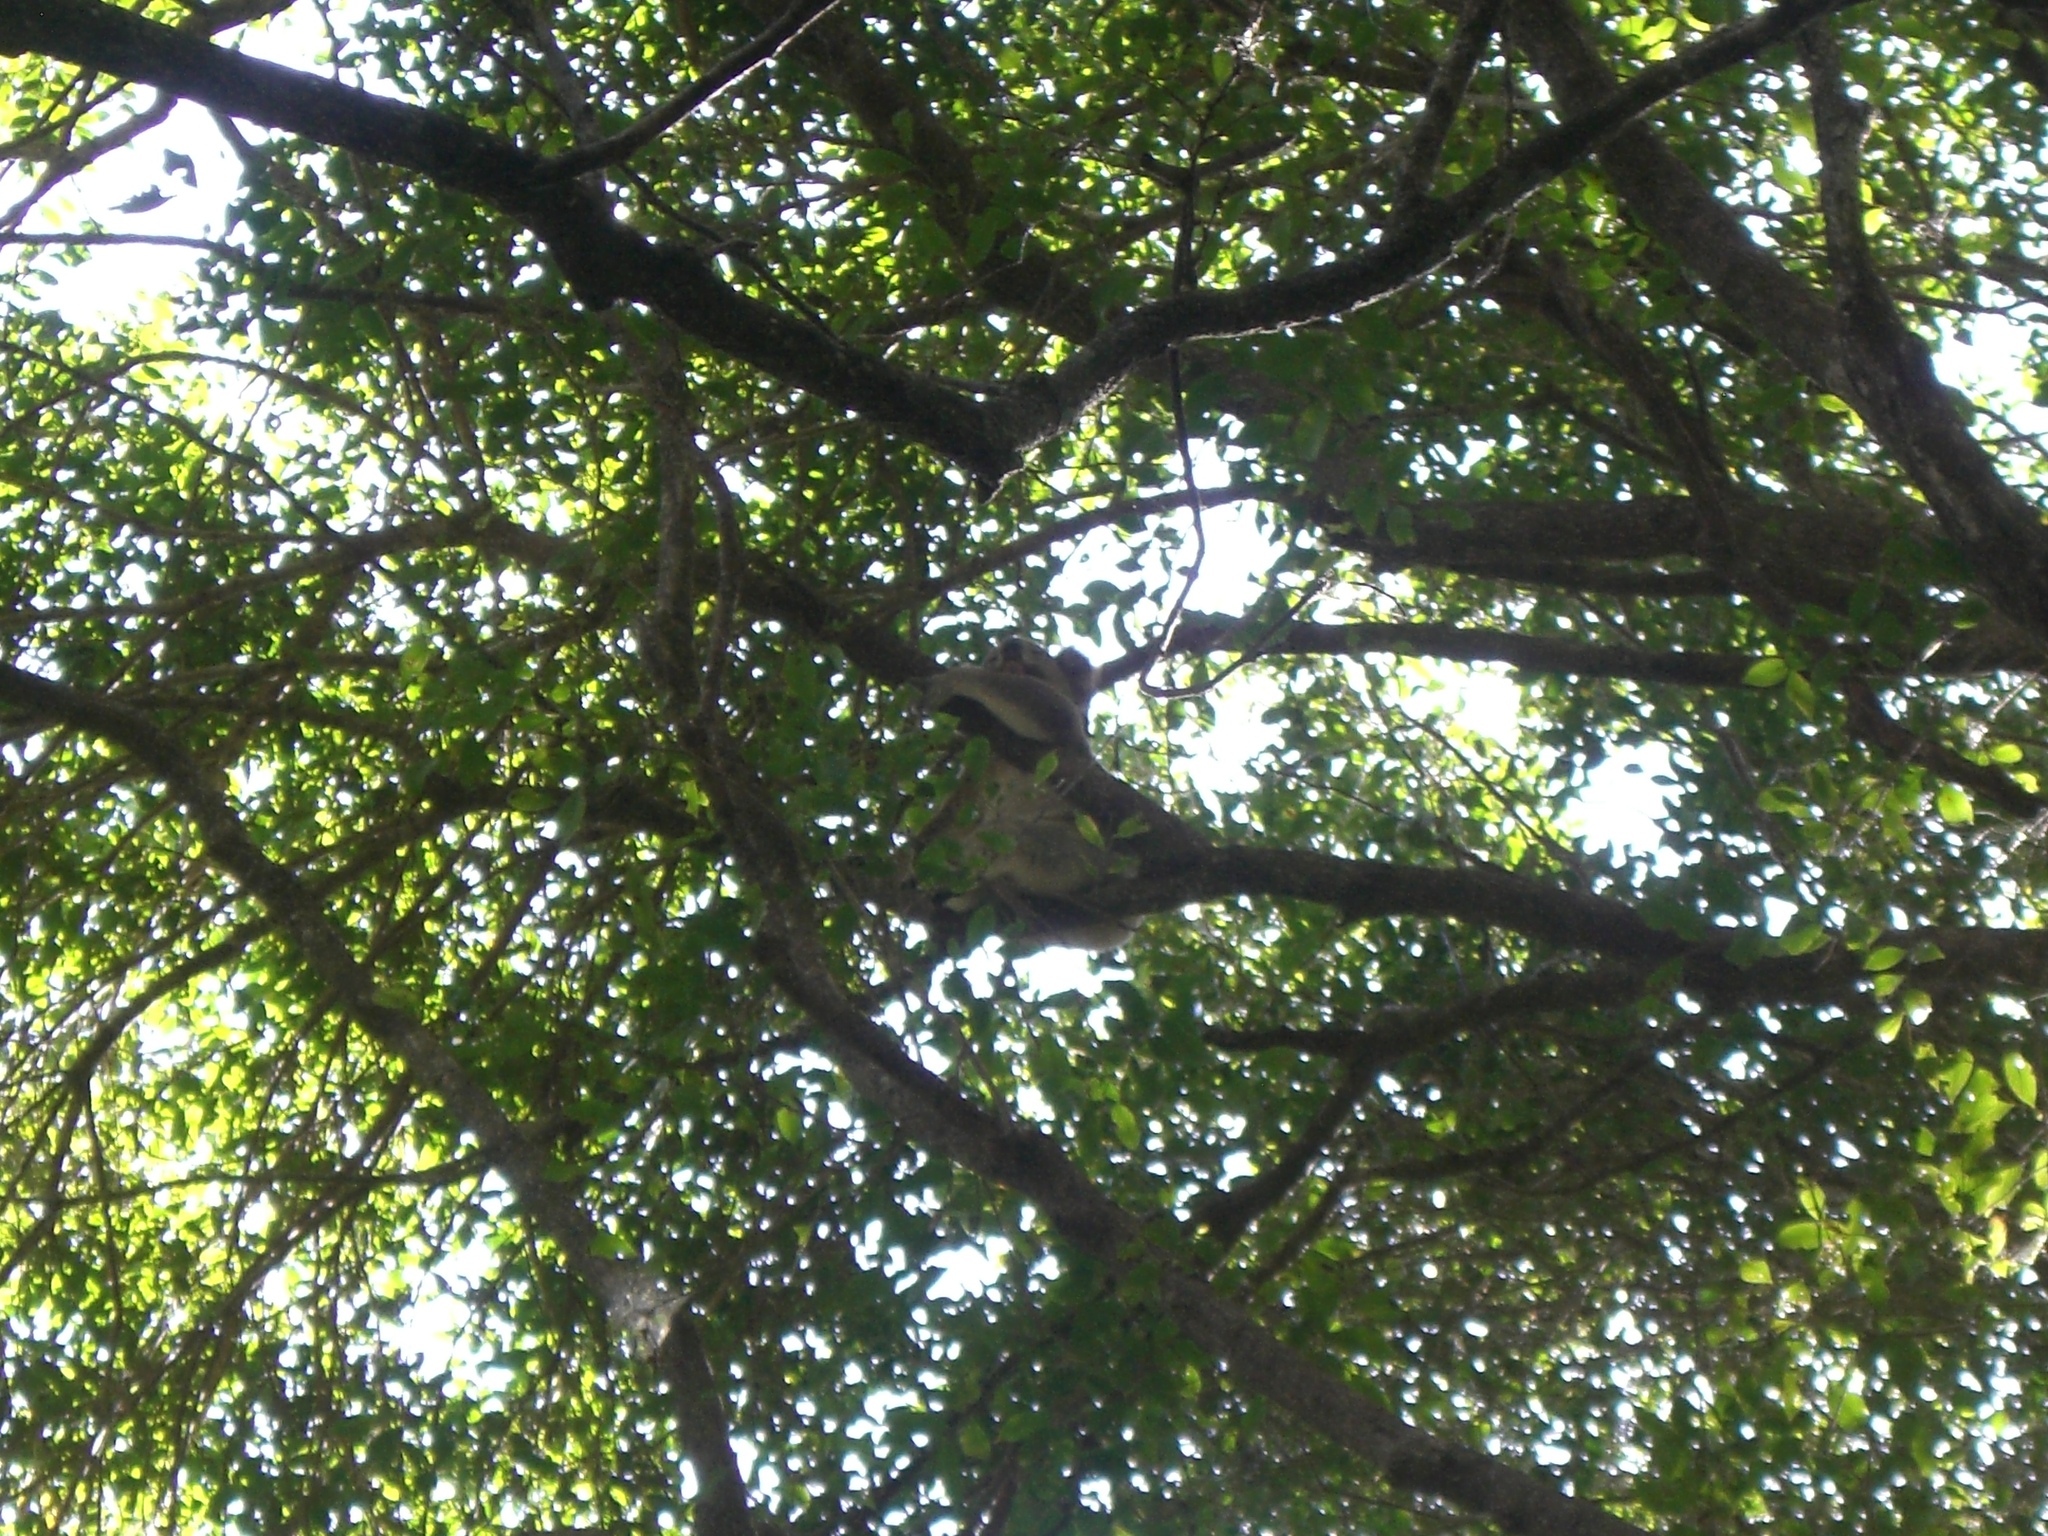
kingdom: Animalia
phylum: Chordata
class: Mammalia
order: Diprotodontia
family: Phascolarctidae
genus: Phascolarctos
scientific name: Phascolarctos cinereus
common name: Koala
